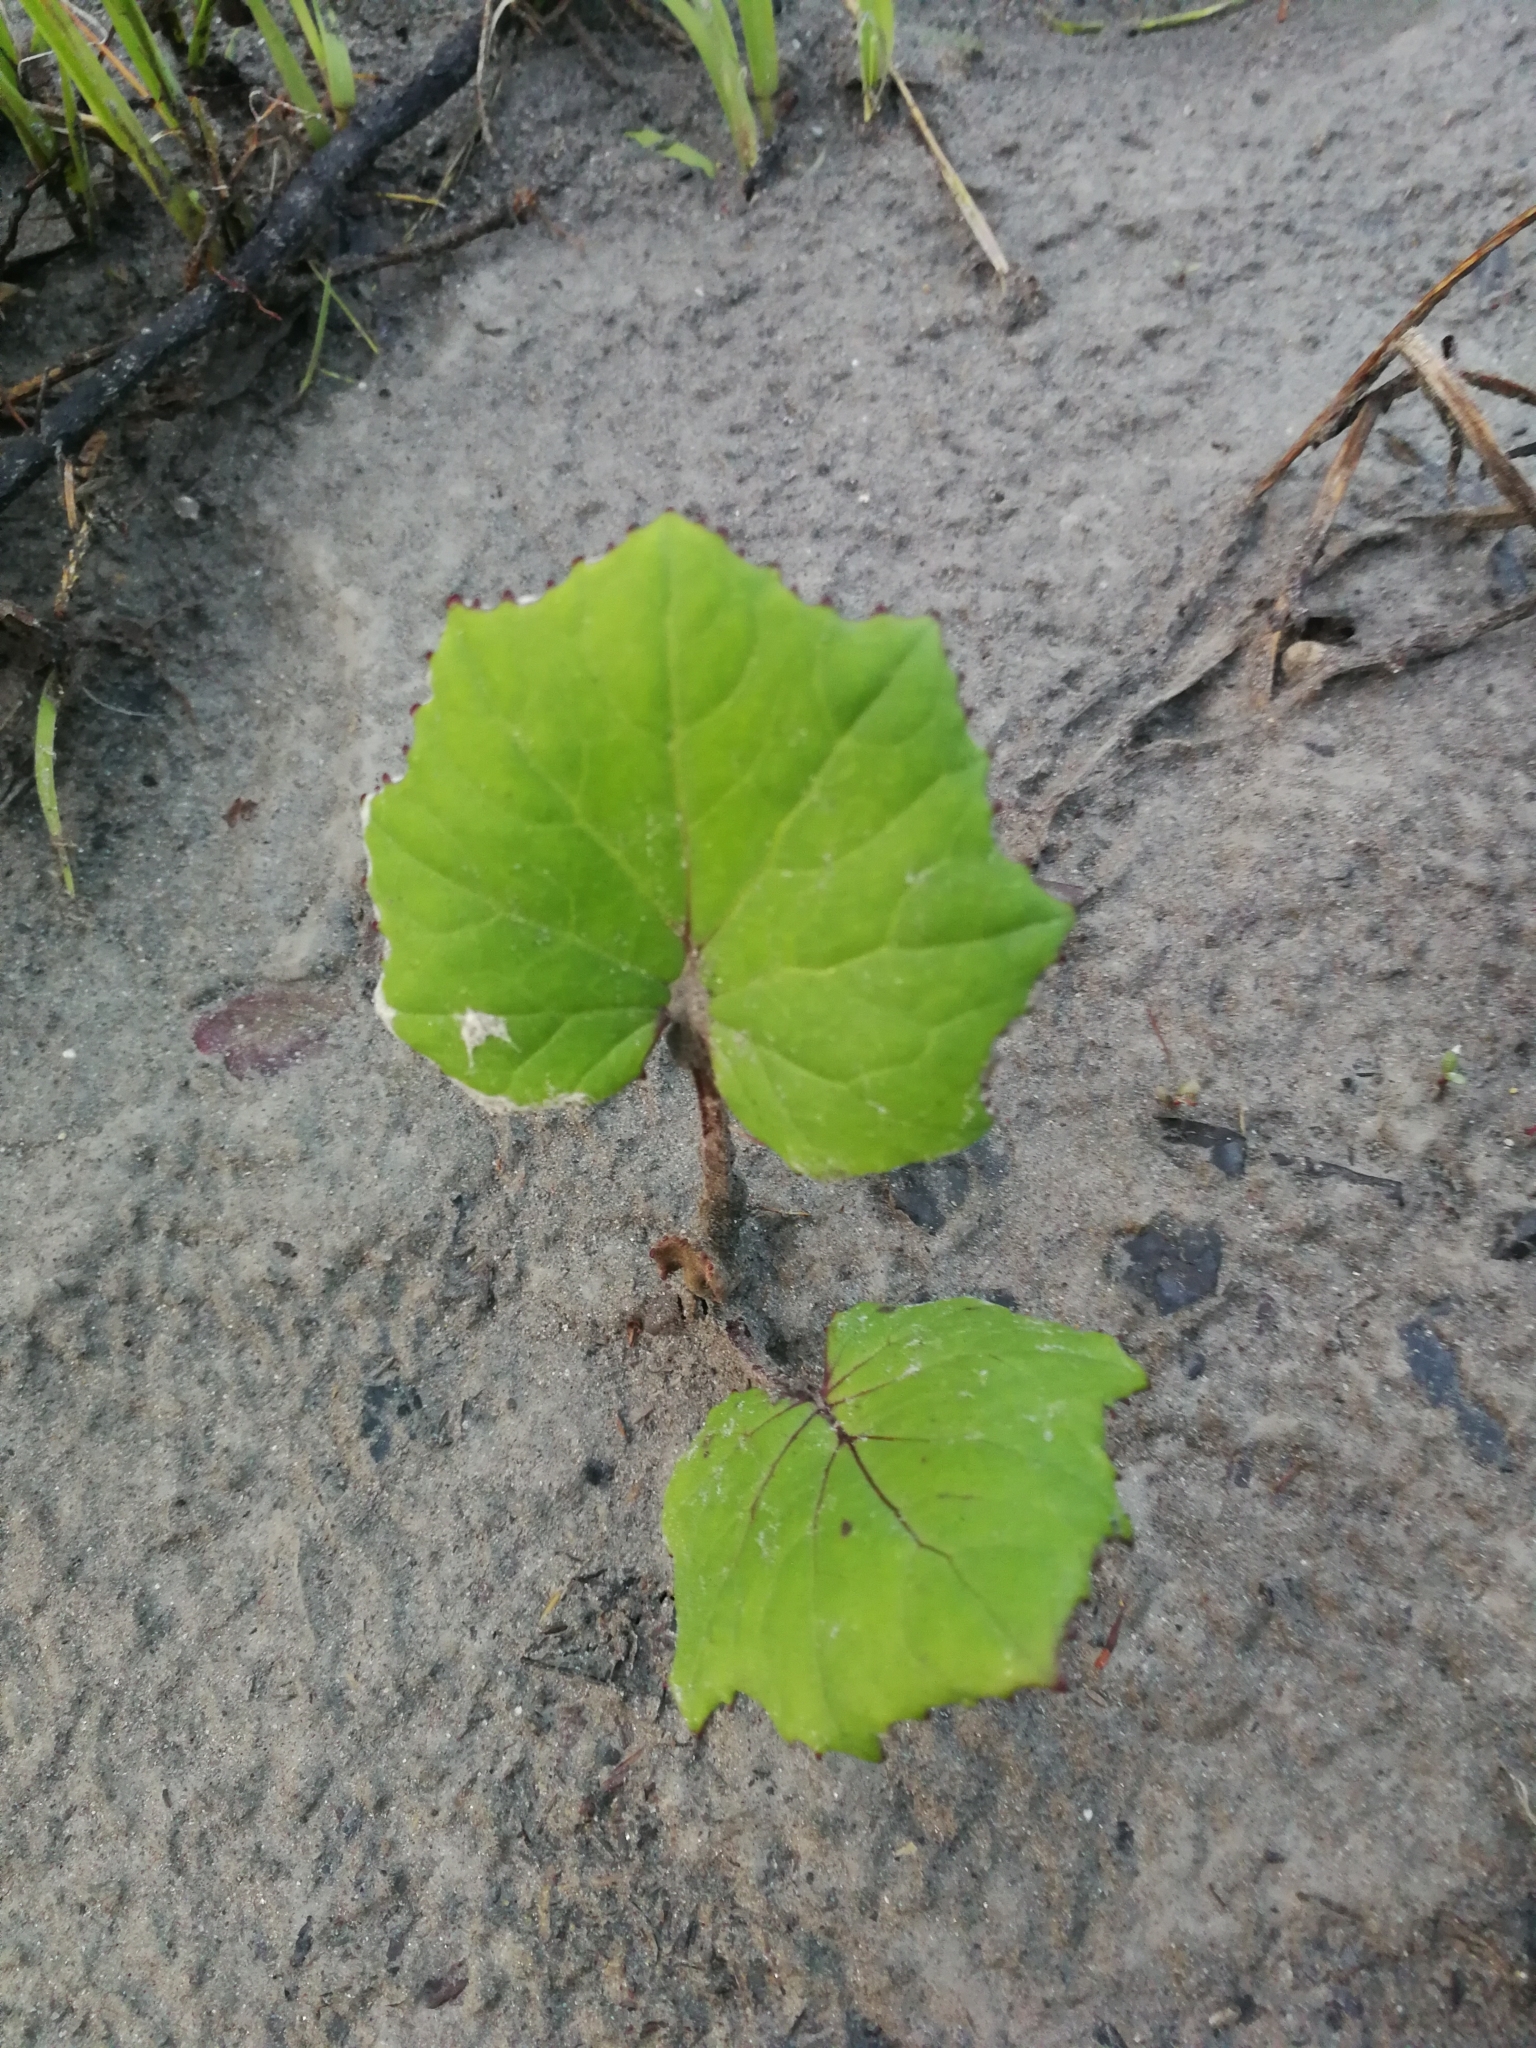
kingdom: Plantae
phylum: Tracheophyta
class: Magnoliopsida
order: Asterales
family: Asteraceae
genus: Tussilago
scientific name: Tussilago farfara
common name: Coltsfoot
